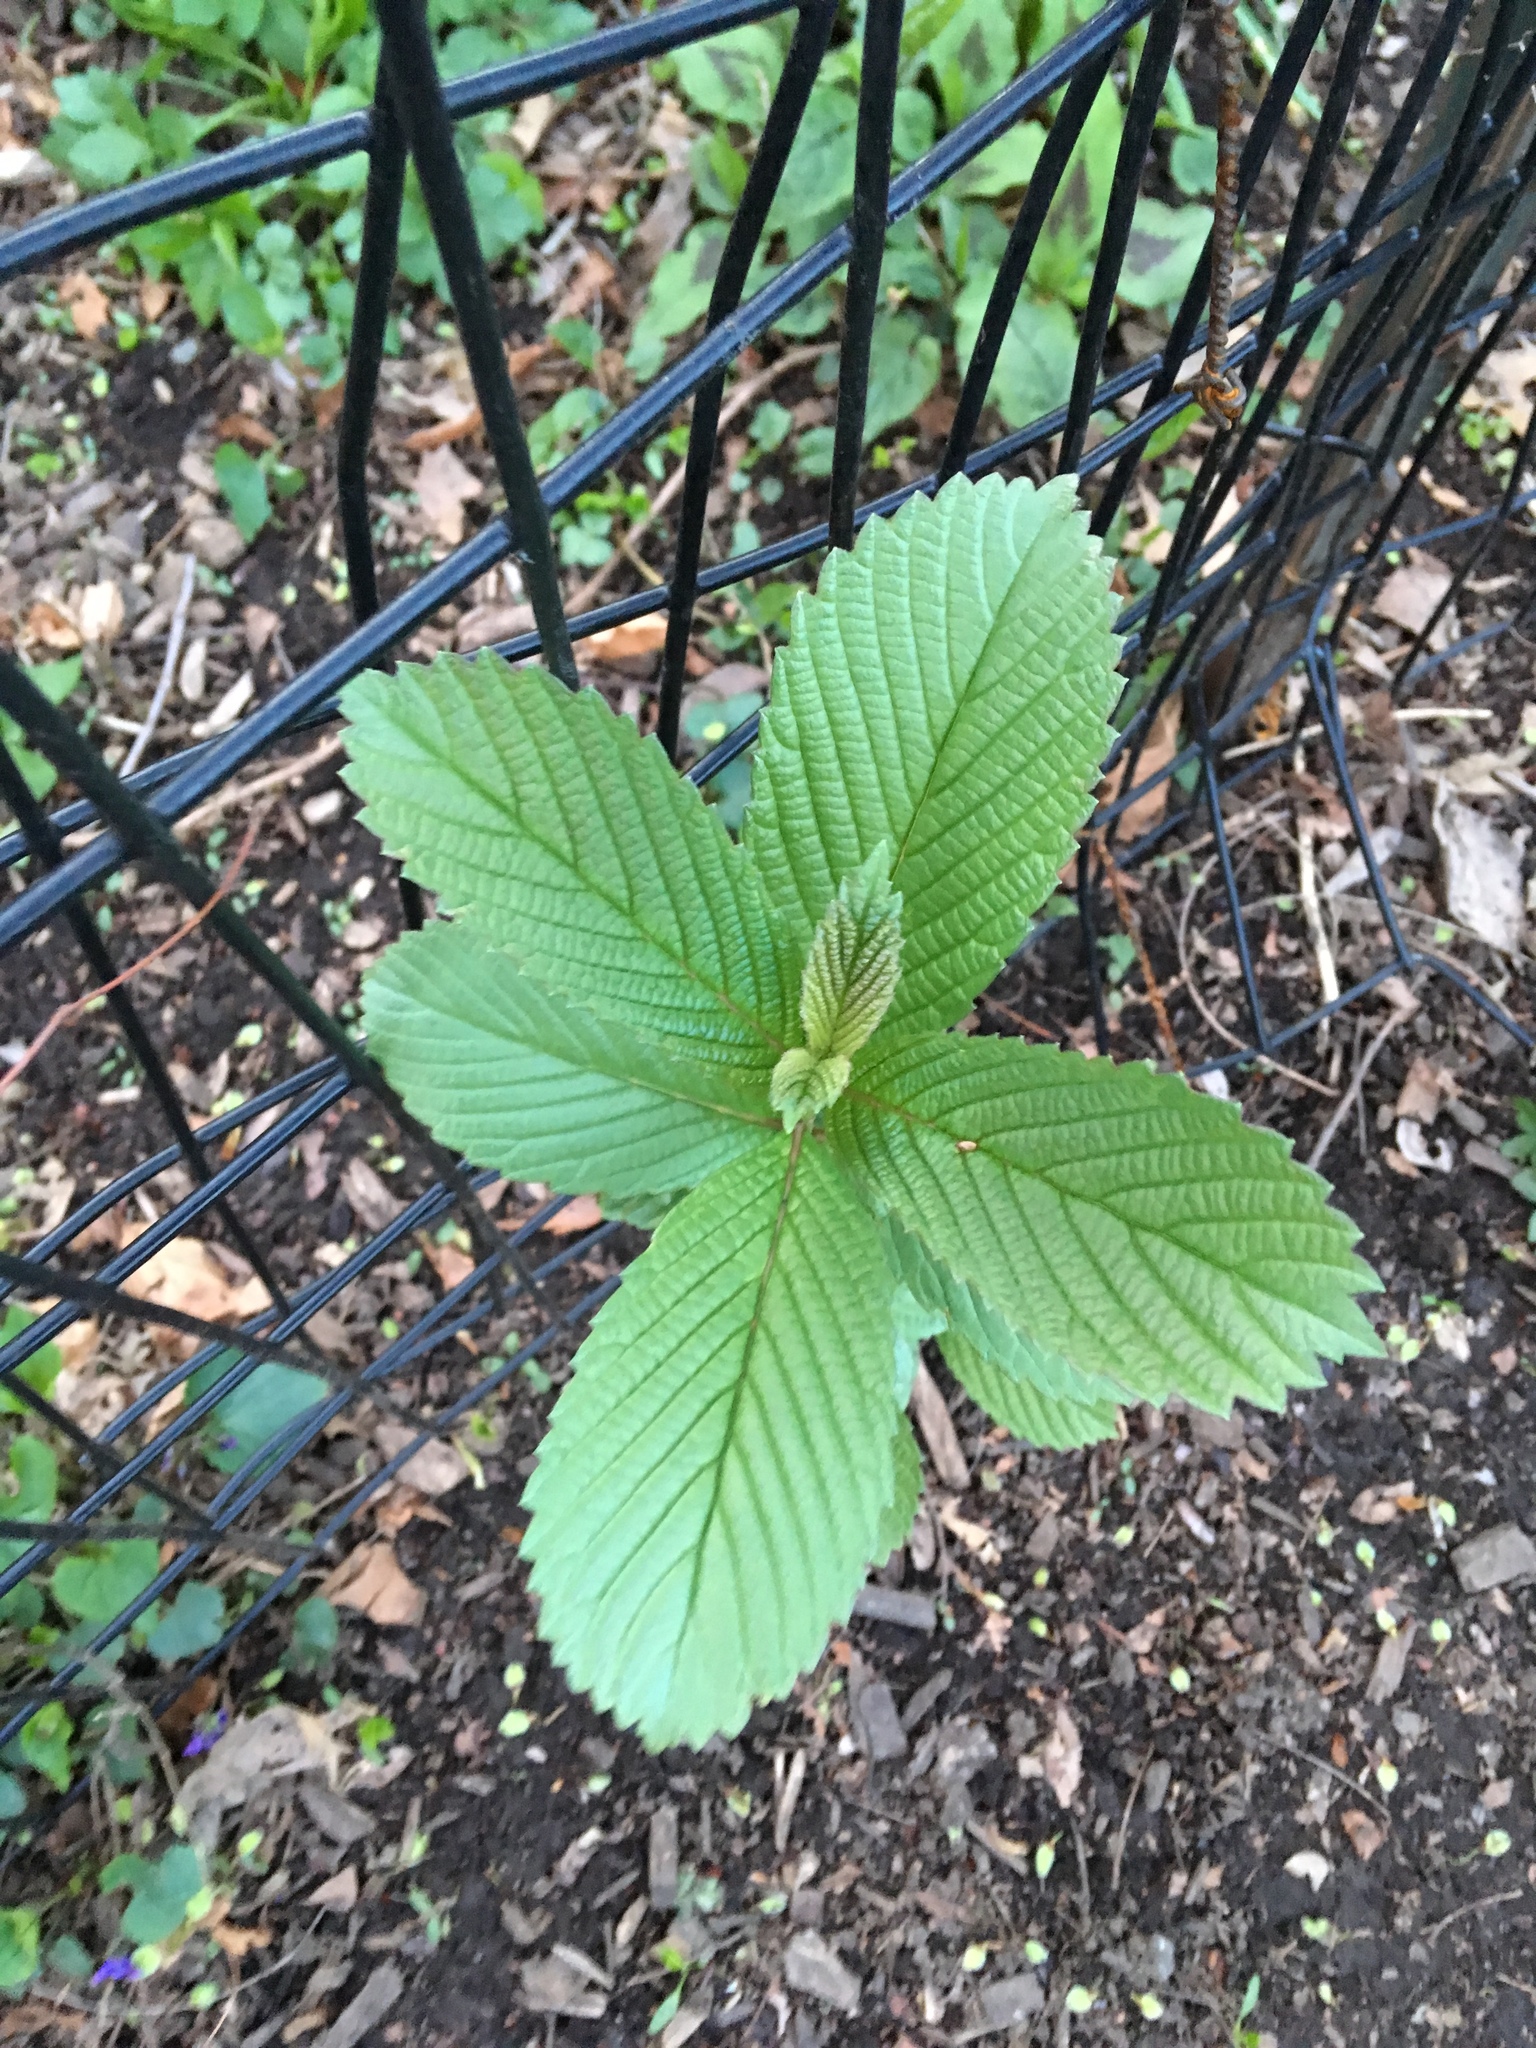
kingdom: Plantae
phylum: Tracheophyta
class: Magnoliopsida
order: Dipsacales
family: Viburnaceae
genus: Viburnum
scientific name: Viburnum sieboldii
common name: Siebold's arrowwood
